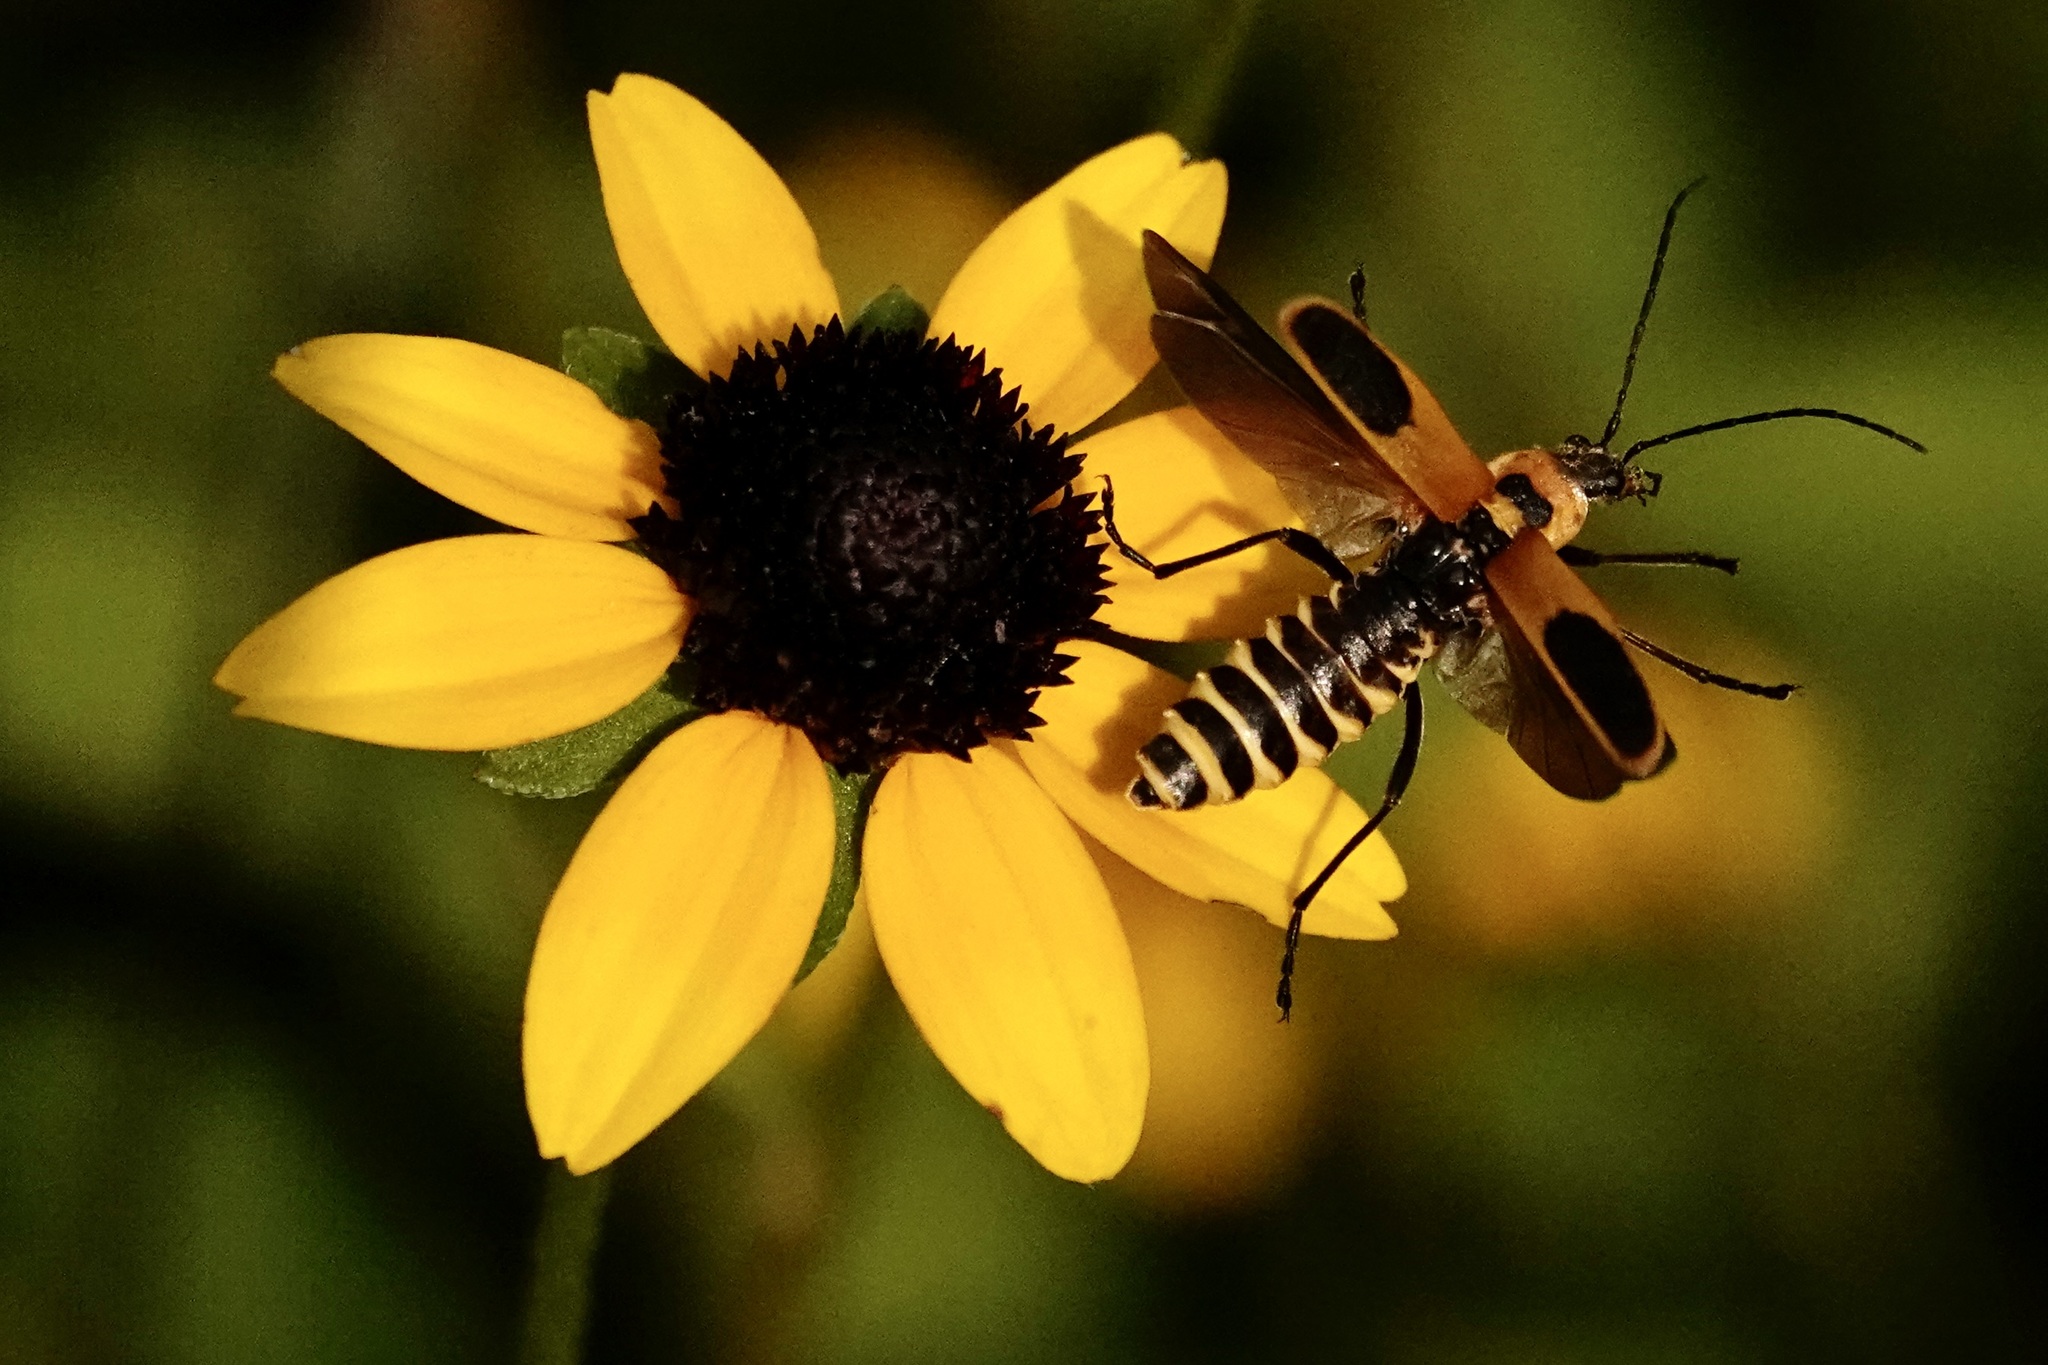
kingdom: Animalia
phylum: Arthropoda
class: Insecta
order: Coleoptera
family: Cantharidae
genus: Chauliognathus
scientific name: Chauliognathus pensylvanicus
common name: Goldenrod soldier beetle
